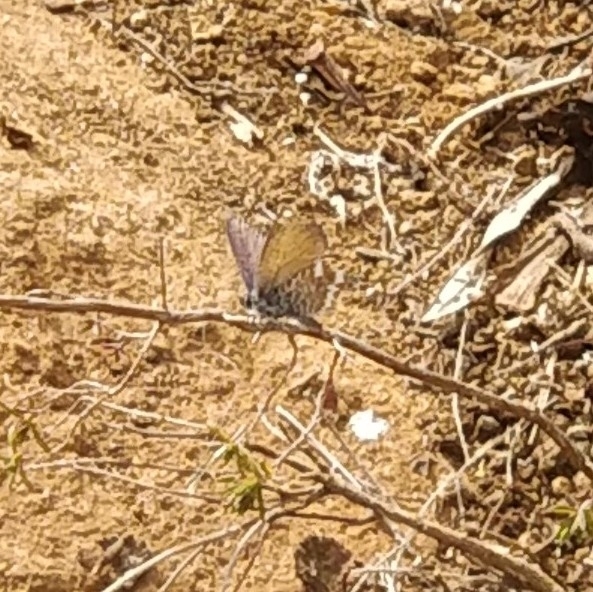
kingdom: Animalia
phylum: Arthropoda
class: Insecta
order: Lepidoptera
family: Lycaenidae
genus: Cyclyrius
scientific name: Cyclyrius webbianus
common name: Canary blue
